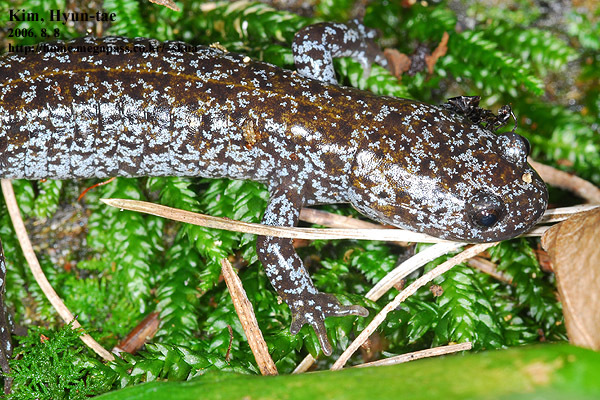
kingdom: Animalia
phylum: Chordata
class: Amphibia
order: Caudata
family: Hynobiidae
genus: Hynobius
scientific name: Hynobius leechii
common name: Gensan salamander
